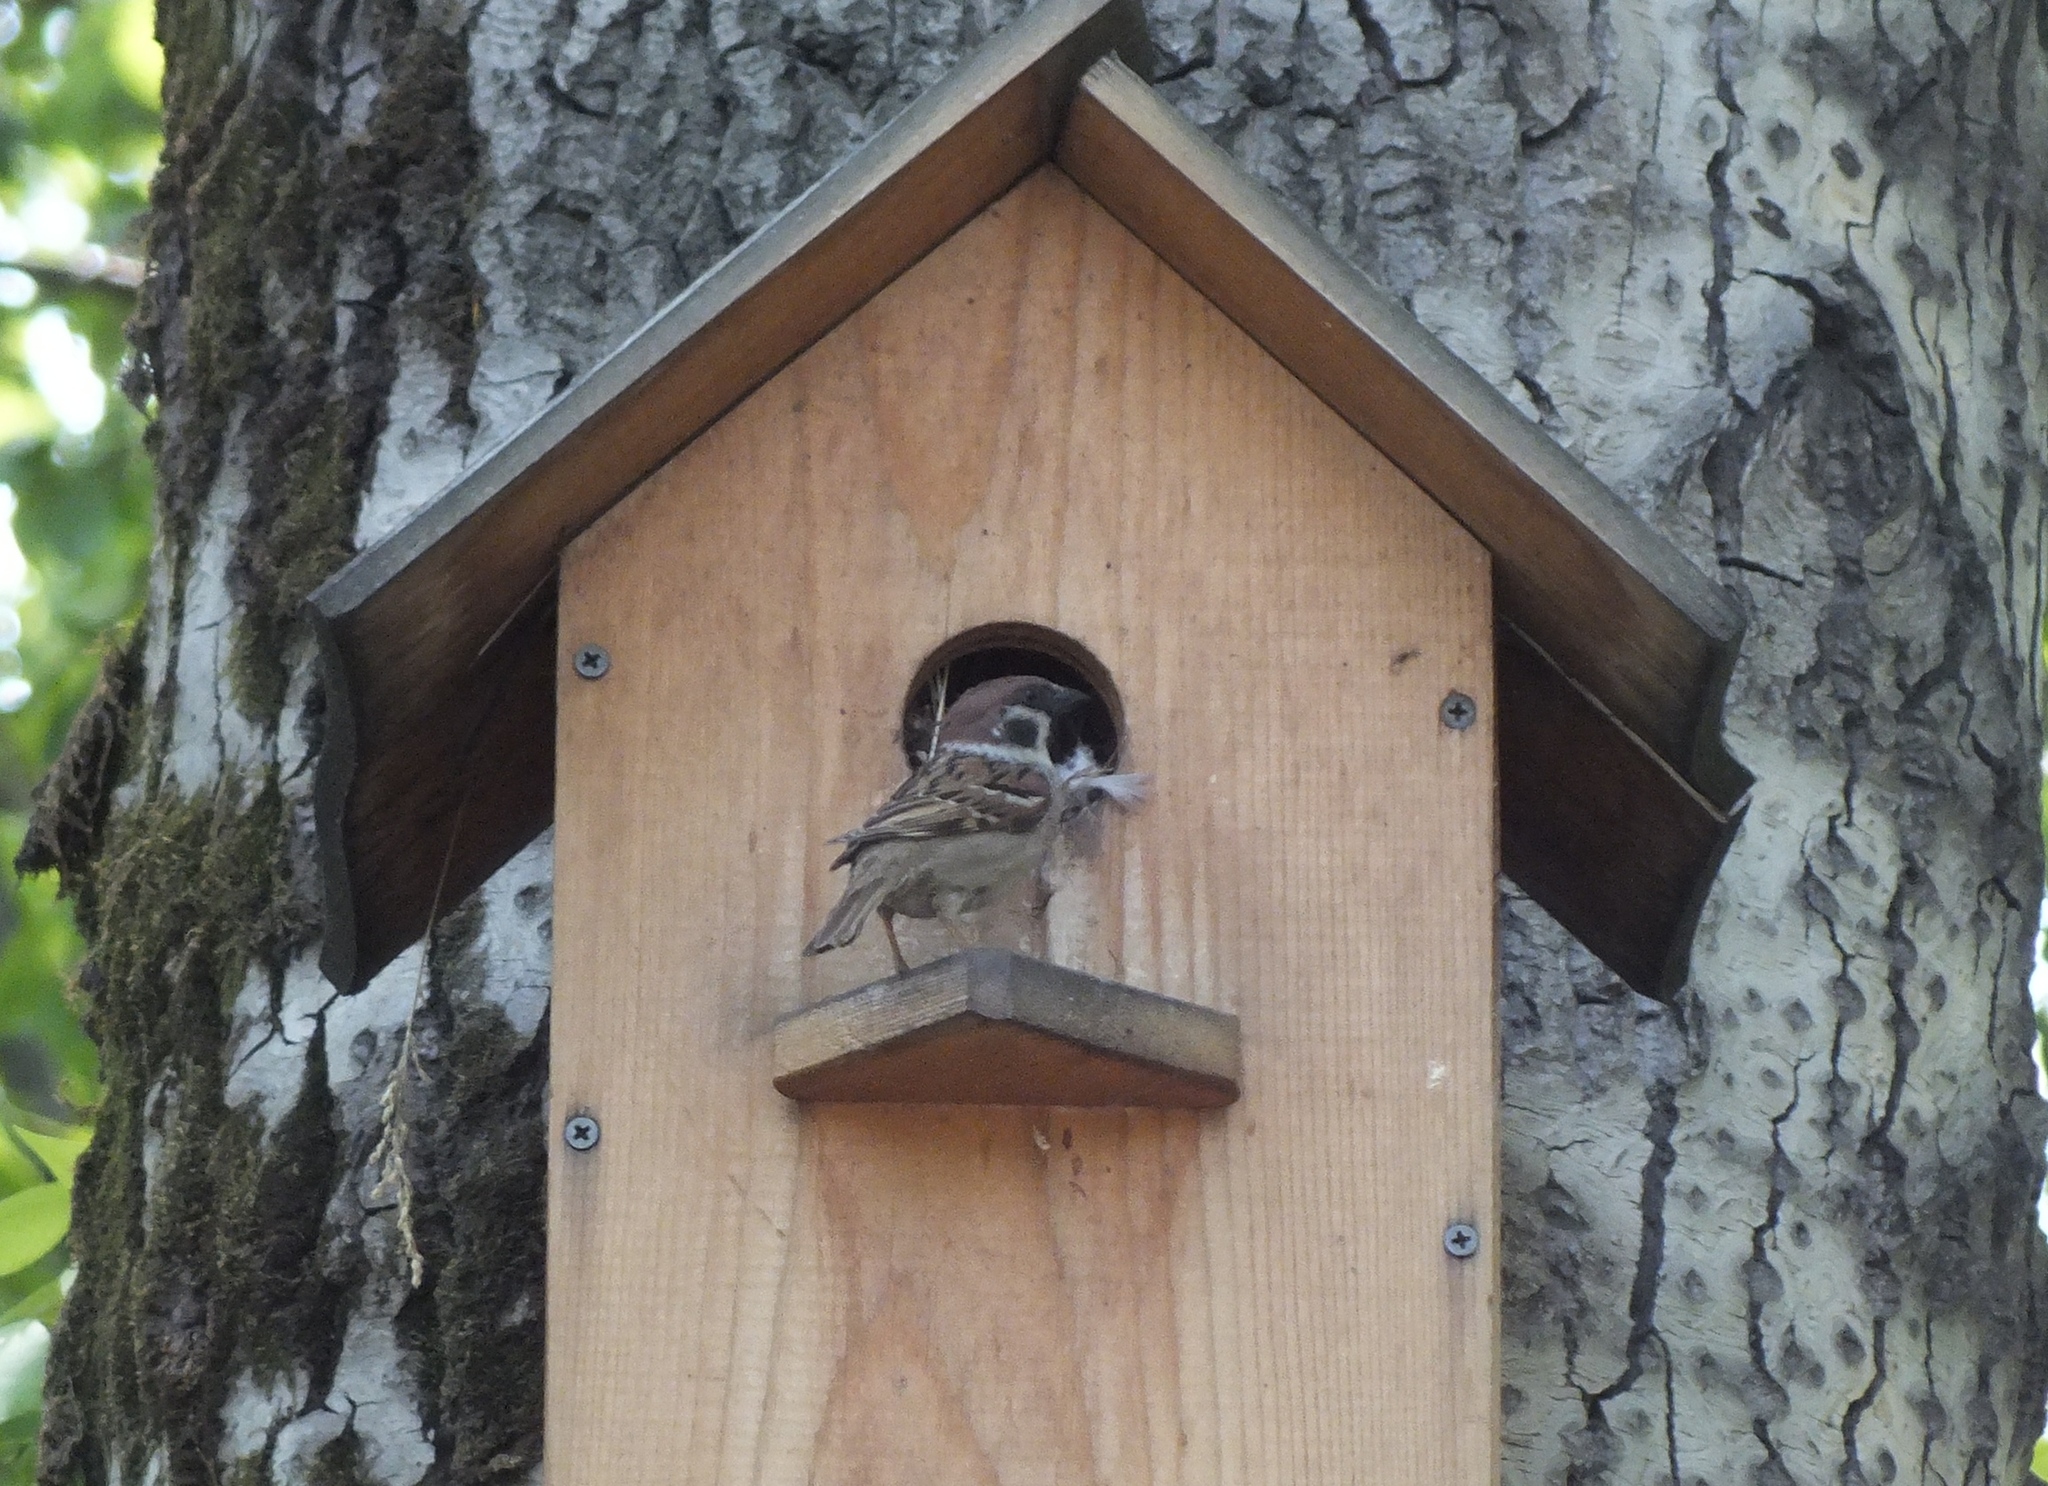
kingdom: Animalia
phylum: Chordata
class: Aves
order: Passeriformes
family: Passeridae
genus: Passer
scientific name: Passer montanus
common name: Eurasian tree sparrow
